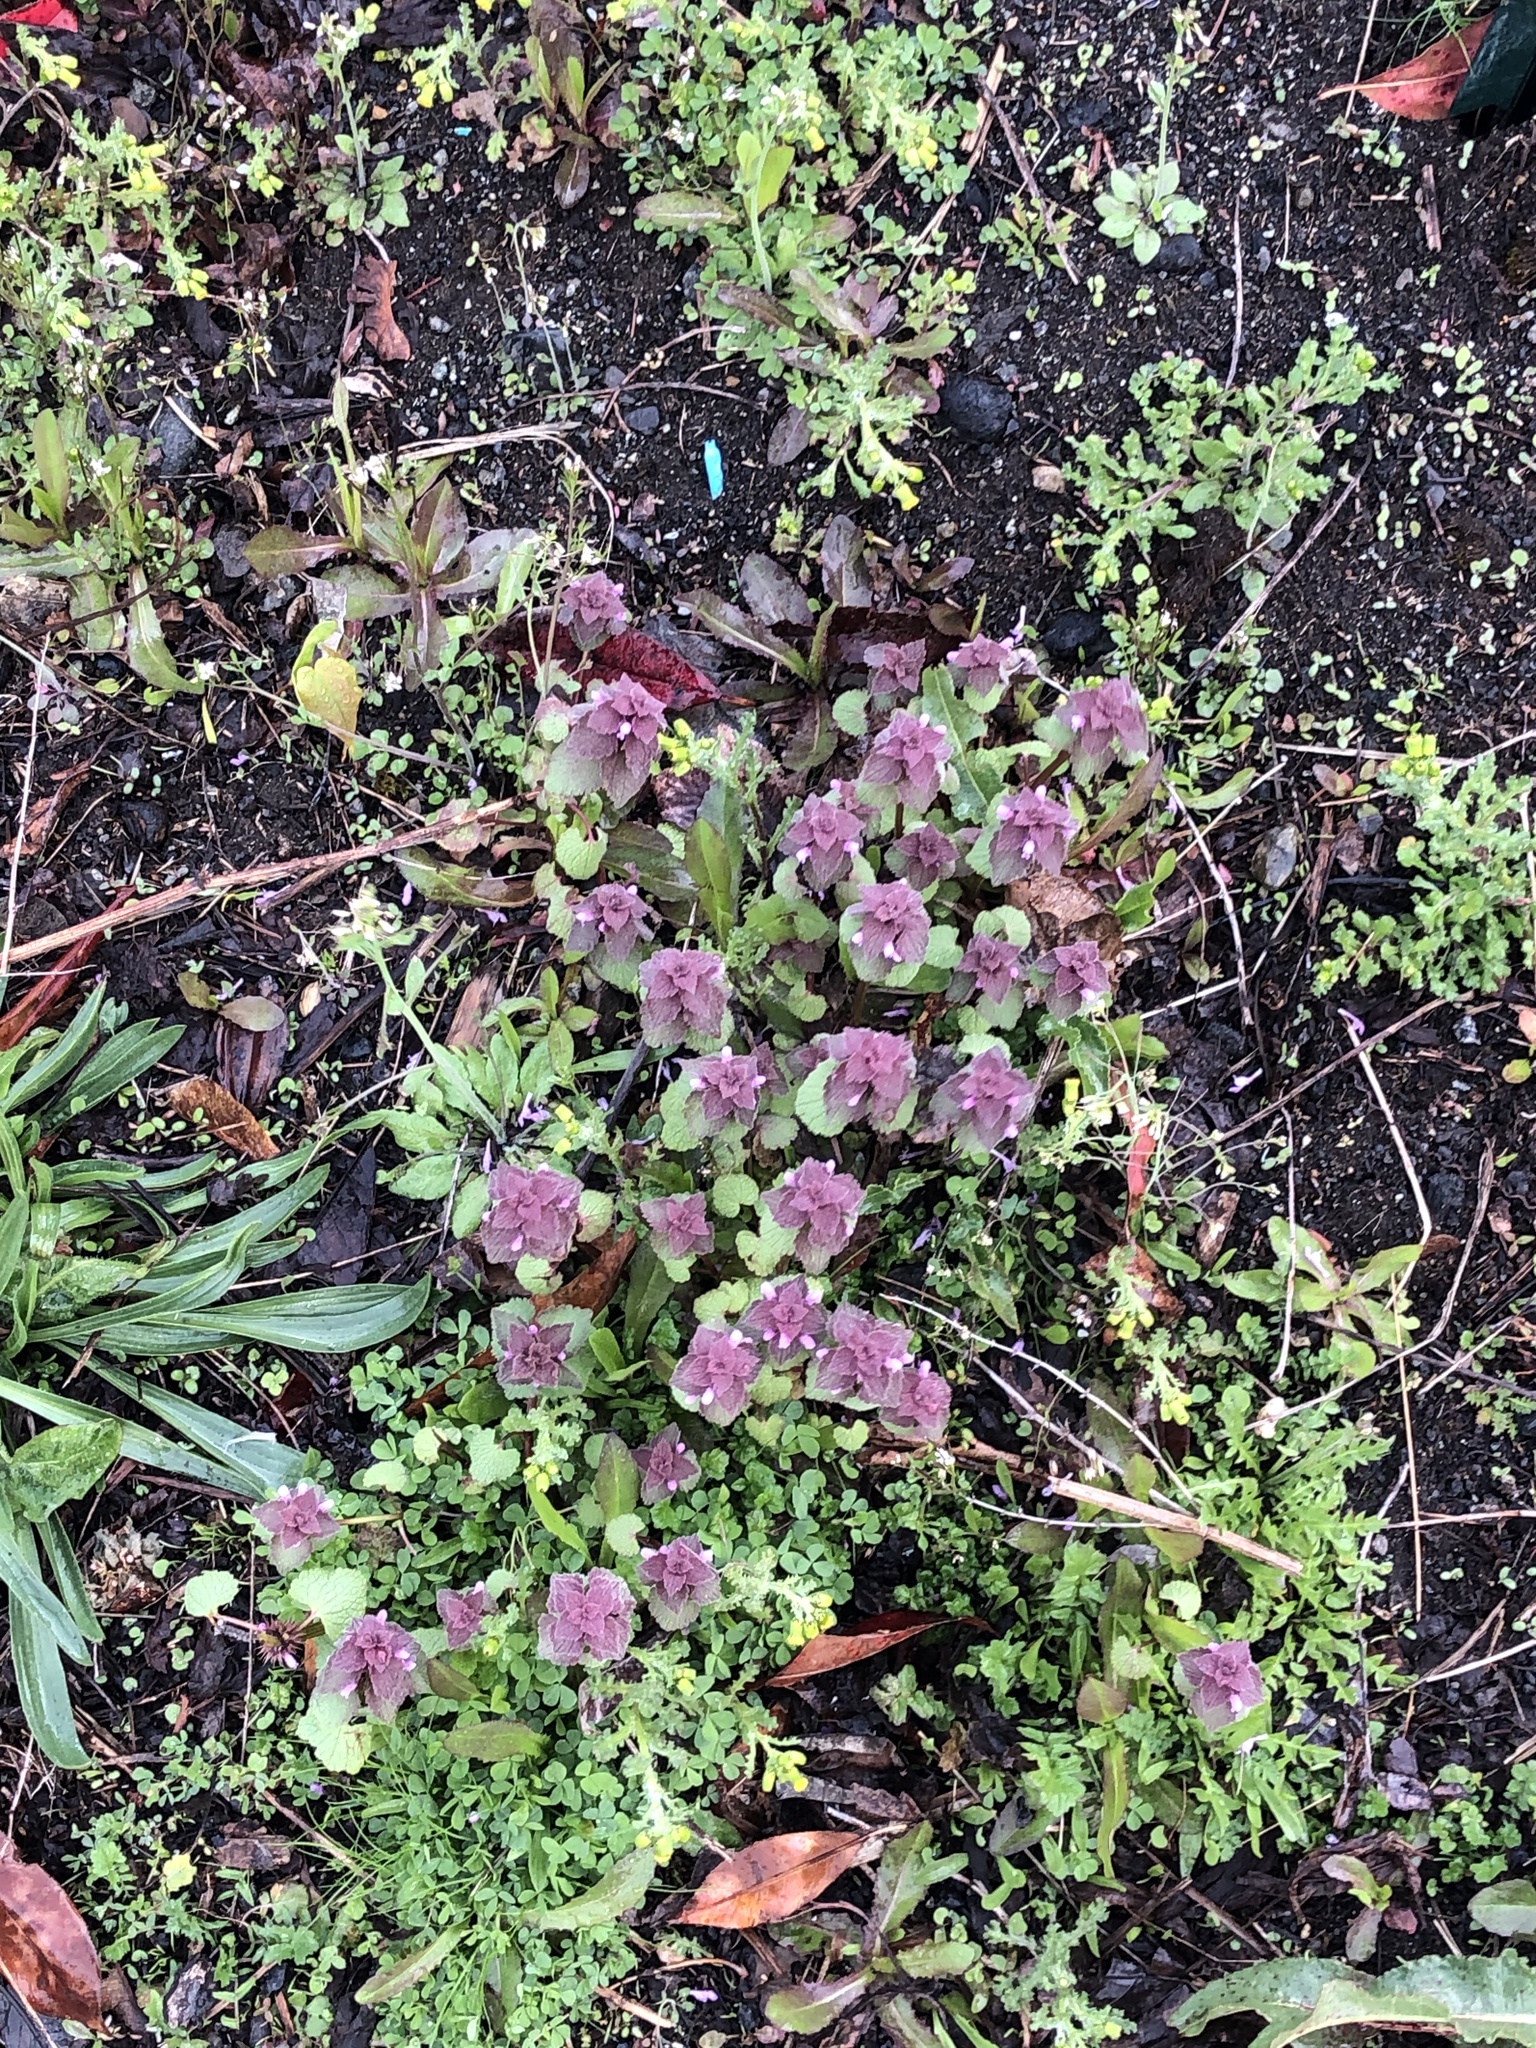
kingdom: Plantae
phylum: Tracheophyta
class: Magnoliopsida
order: Lamiales
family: Lamiaceae
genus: Lamium
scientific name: Lamium purpureum
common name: Red dead-nettle
